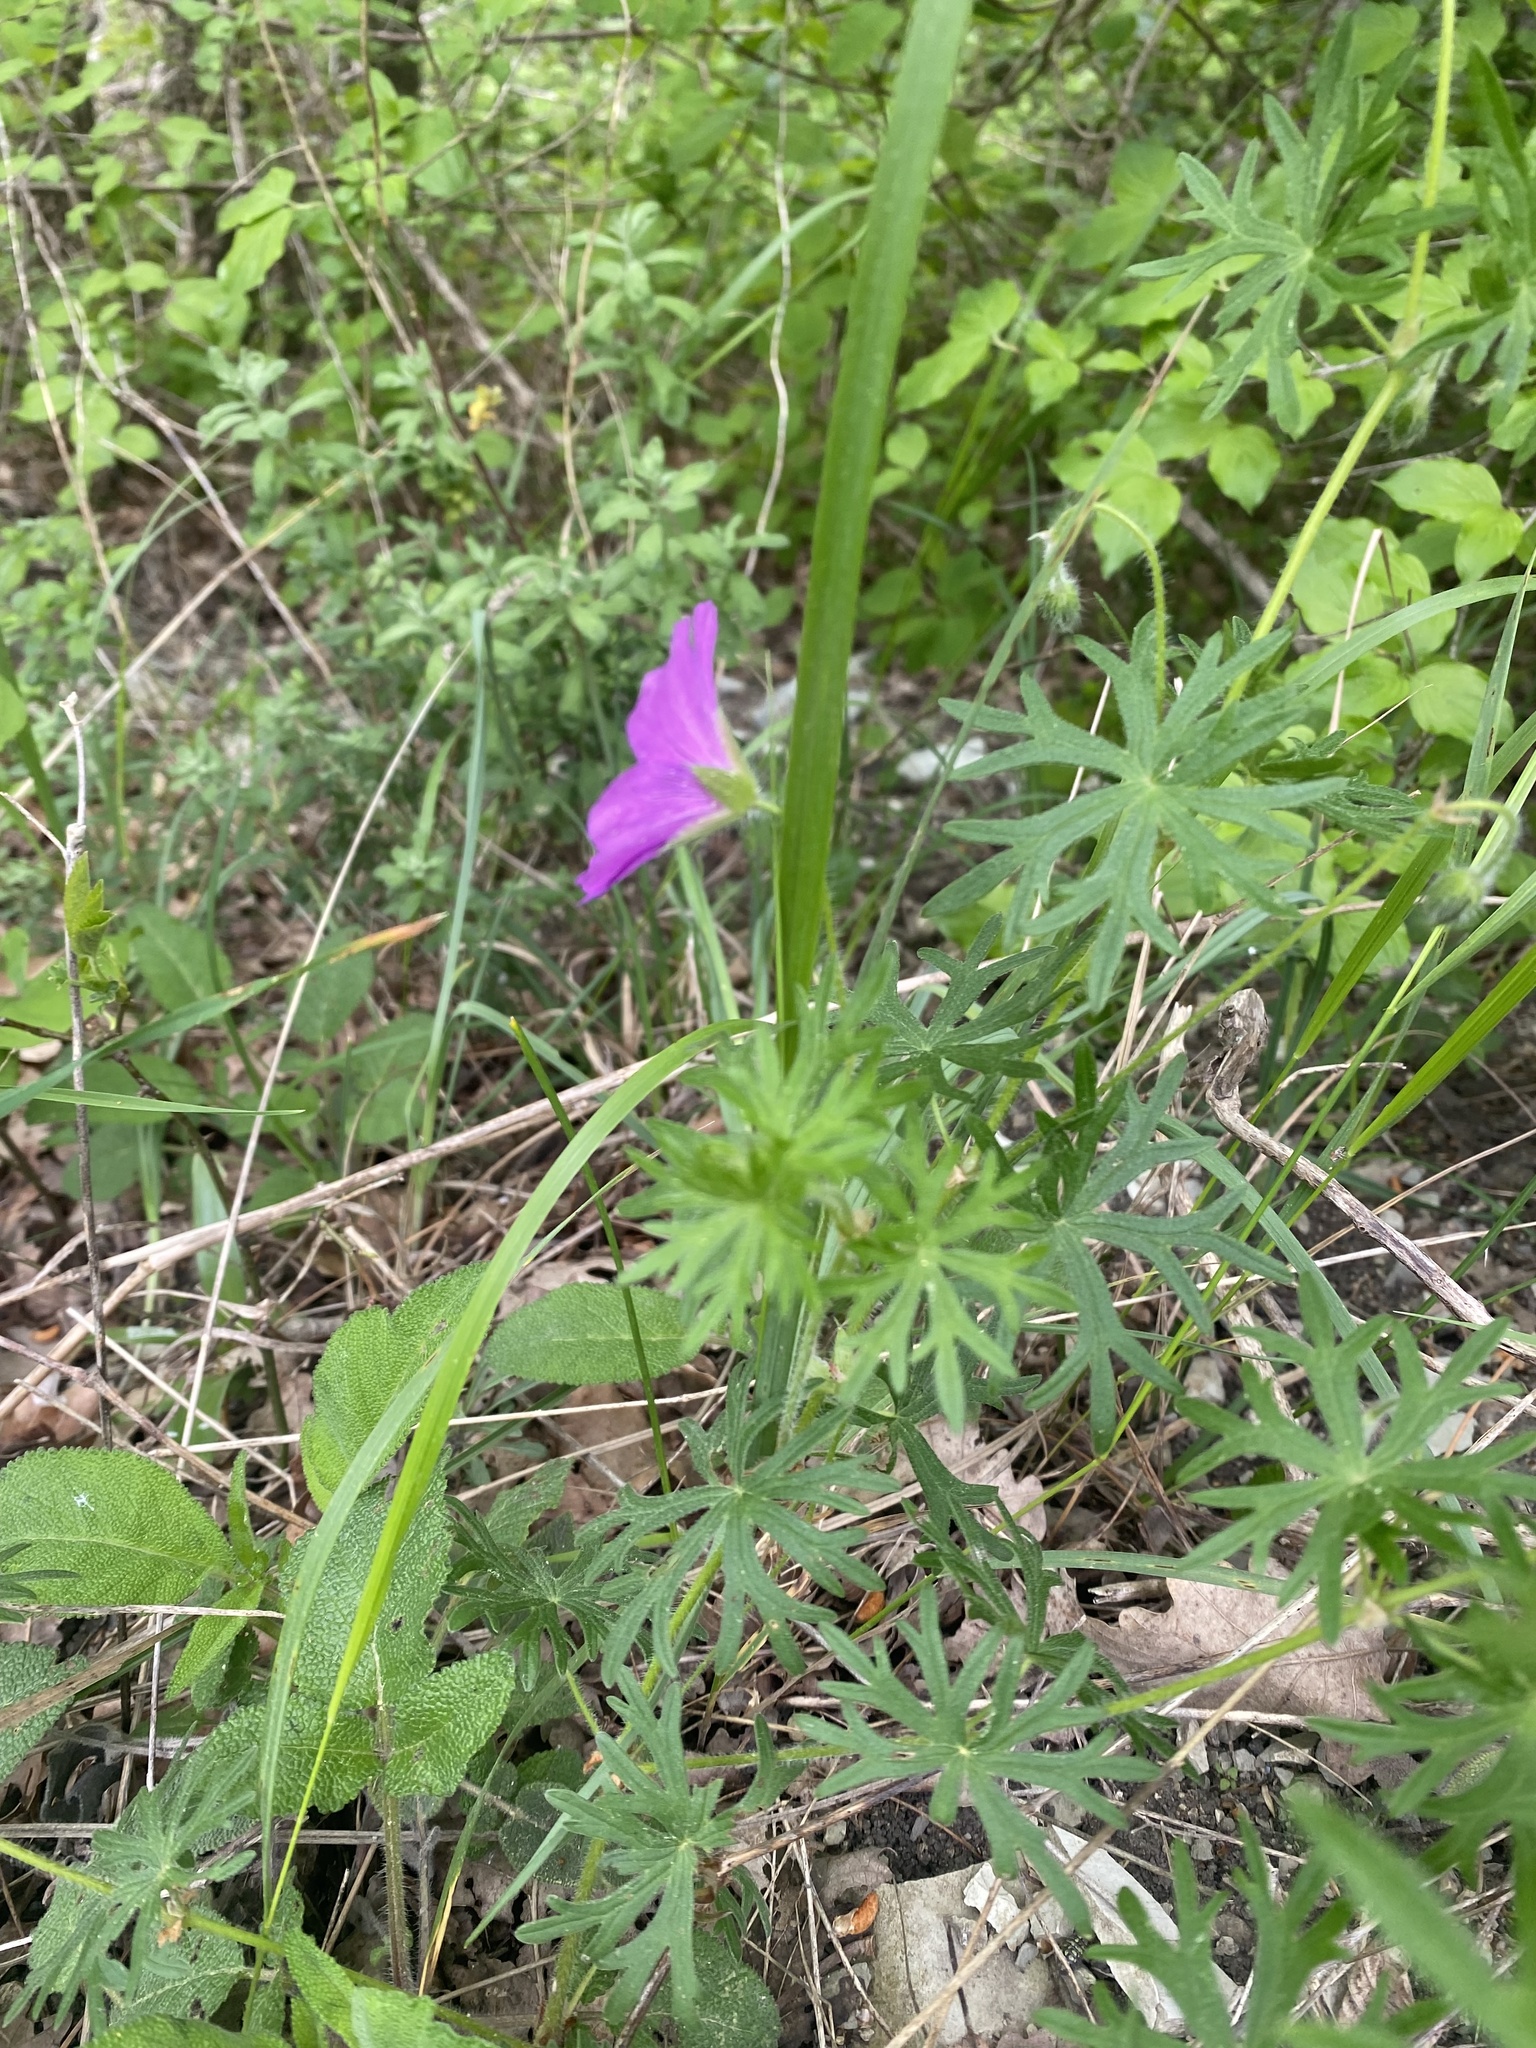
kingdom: Plantae
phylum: Tracheophyta
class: Magnoliopsida
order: Geraniales
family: Geraniaceae
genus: Geranium
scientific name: Geranium sanguineum
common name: Bloody crane's-bill
